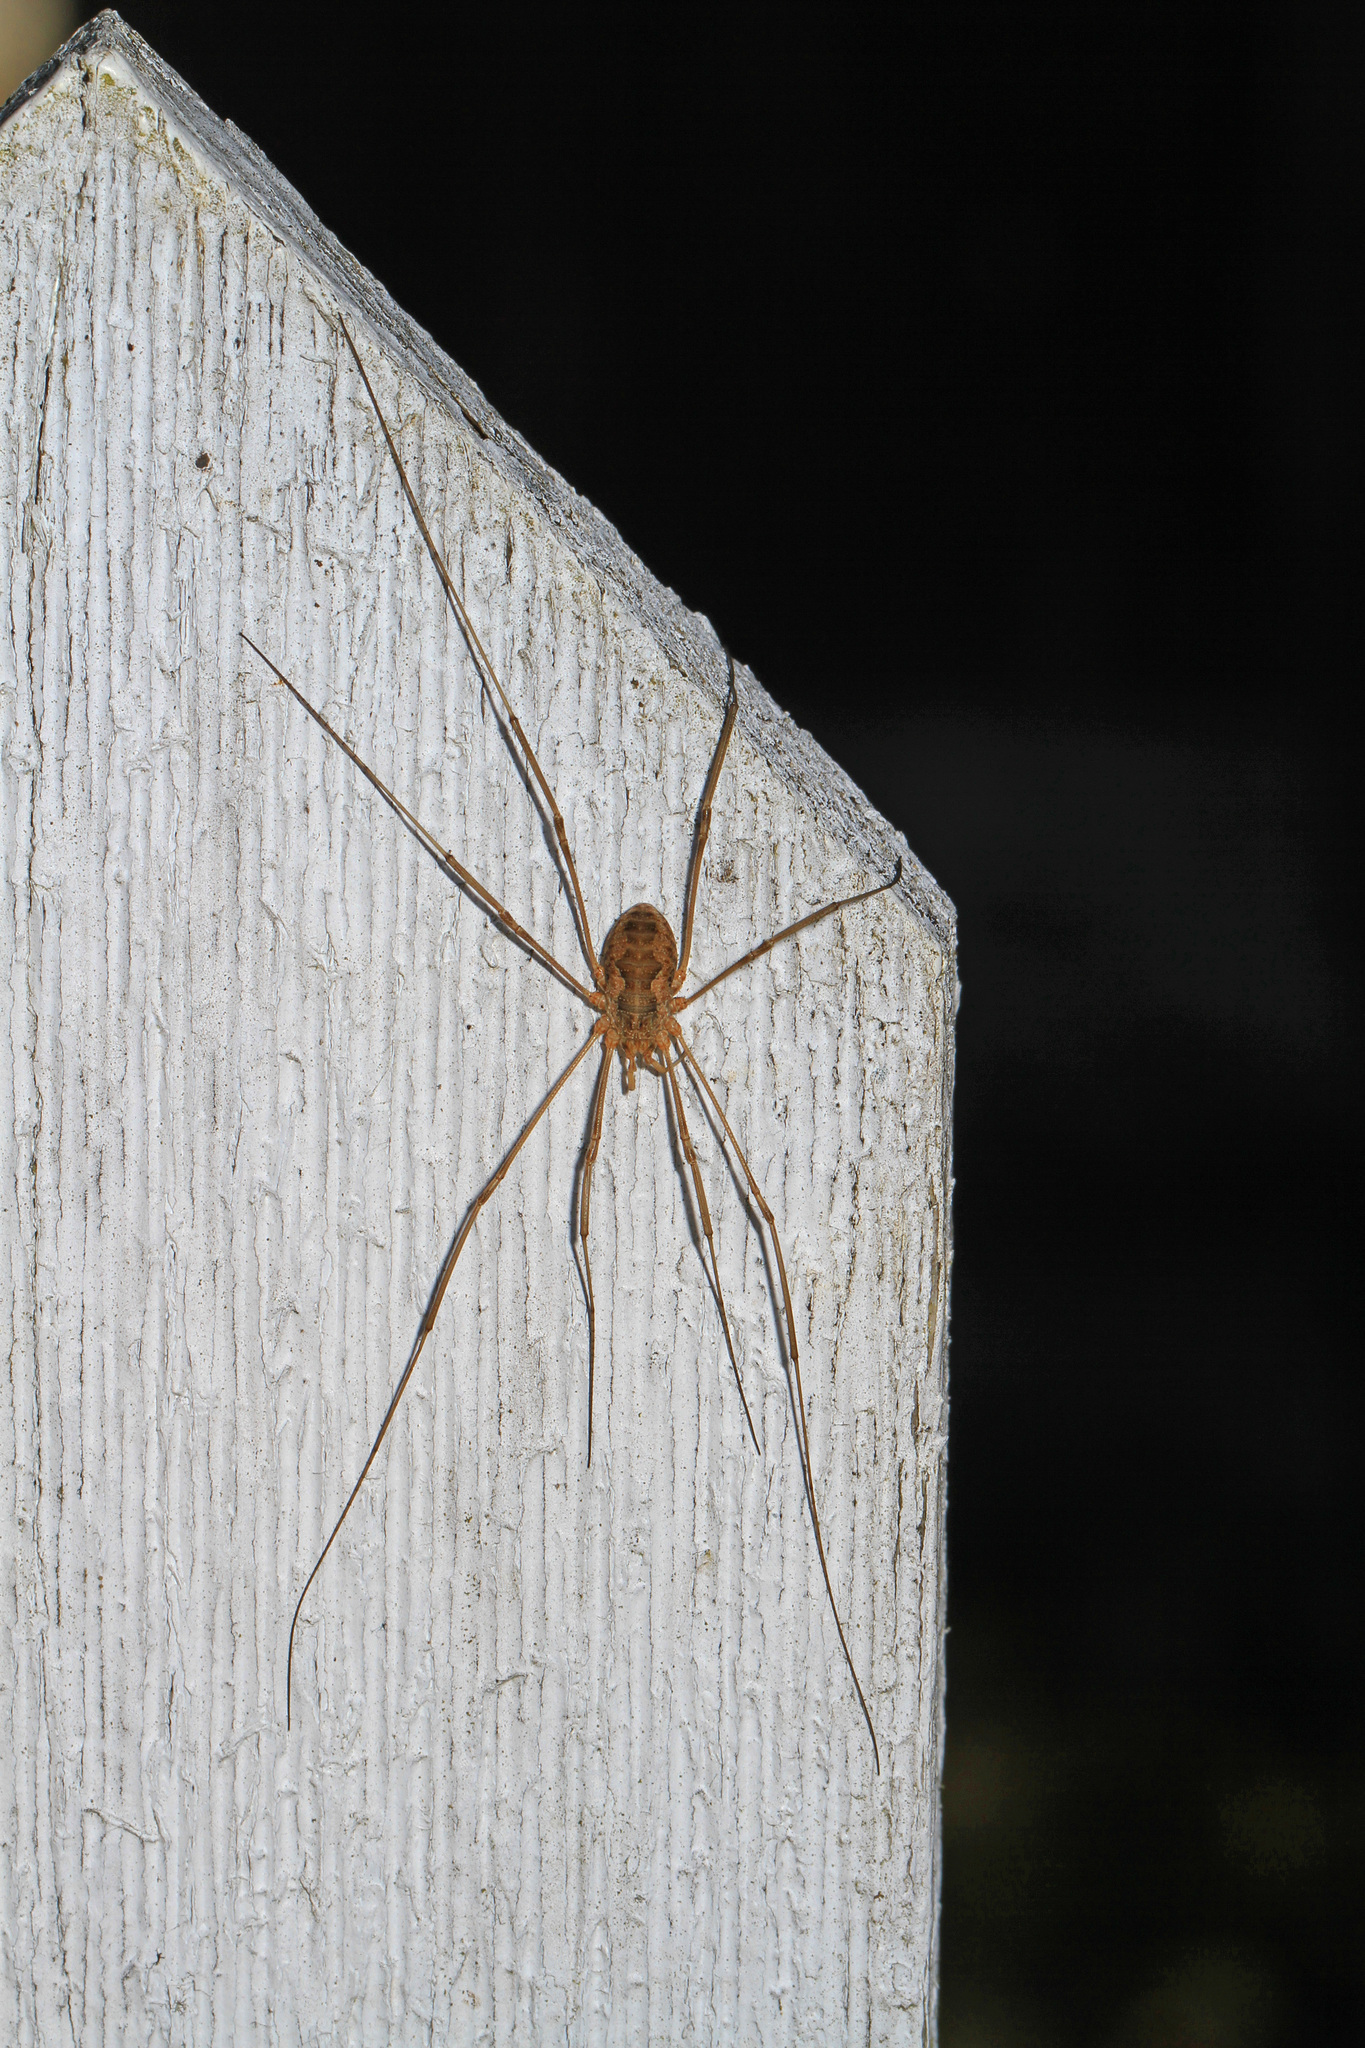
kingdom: Animalia
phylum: Arthropoda
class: Arachnida
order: Opiliones
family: Phalangiidae
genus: Phalangium
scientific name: Phalangium opilio
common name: Daddy longleg
